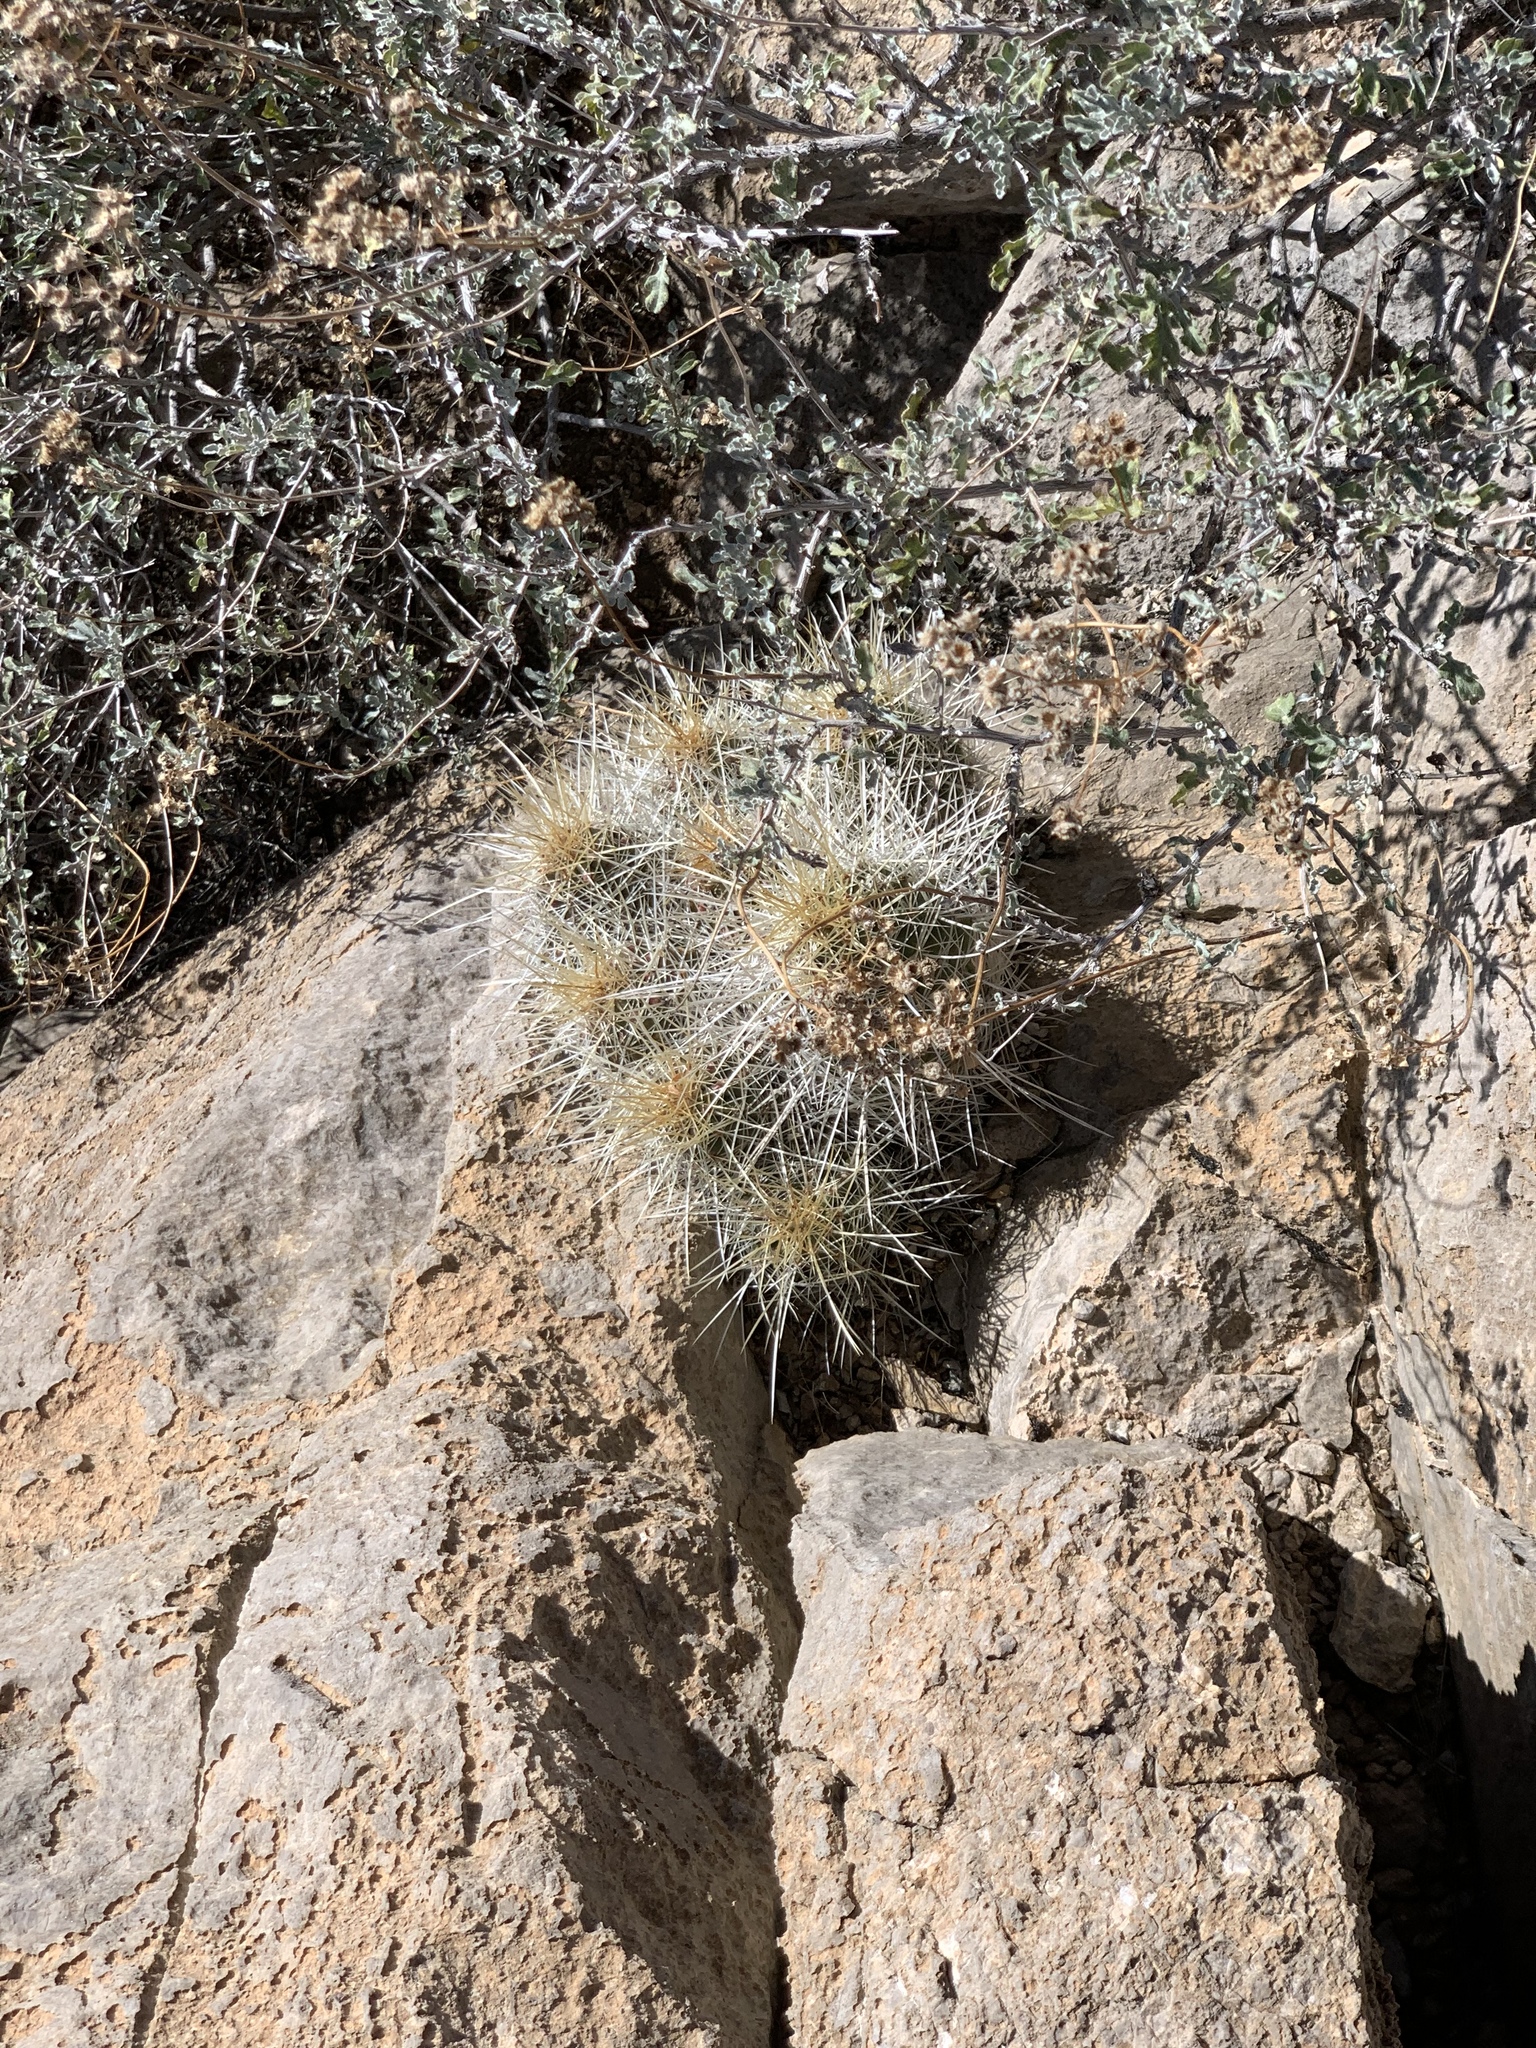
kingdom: Plantae
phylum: Tracheophyta
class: Magnoliopsida
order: Caryophyllales
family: Cactaceae
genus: Echinocereus
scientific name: Echinocereus stramineus
